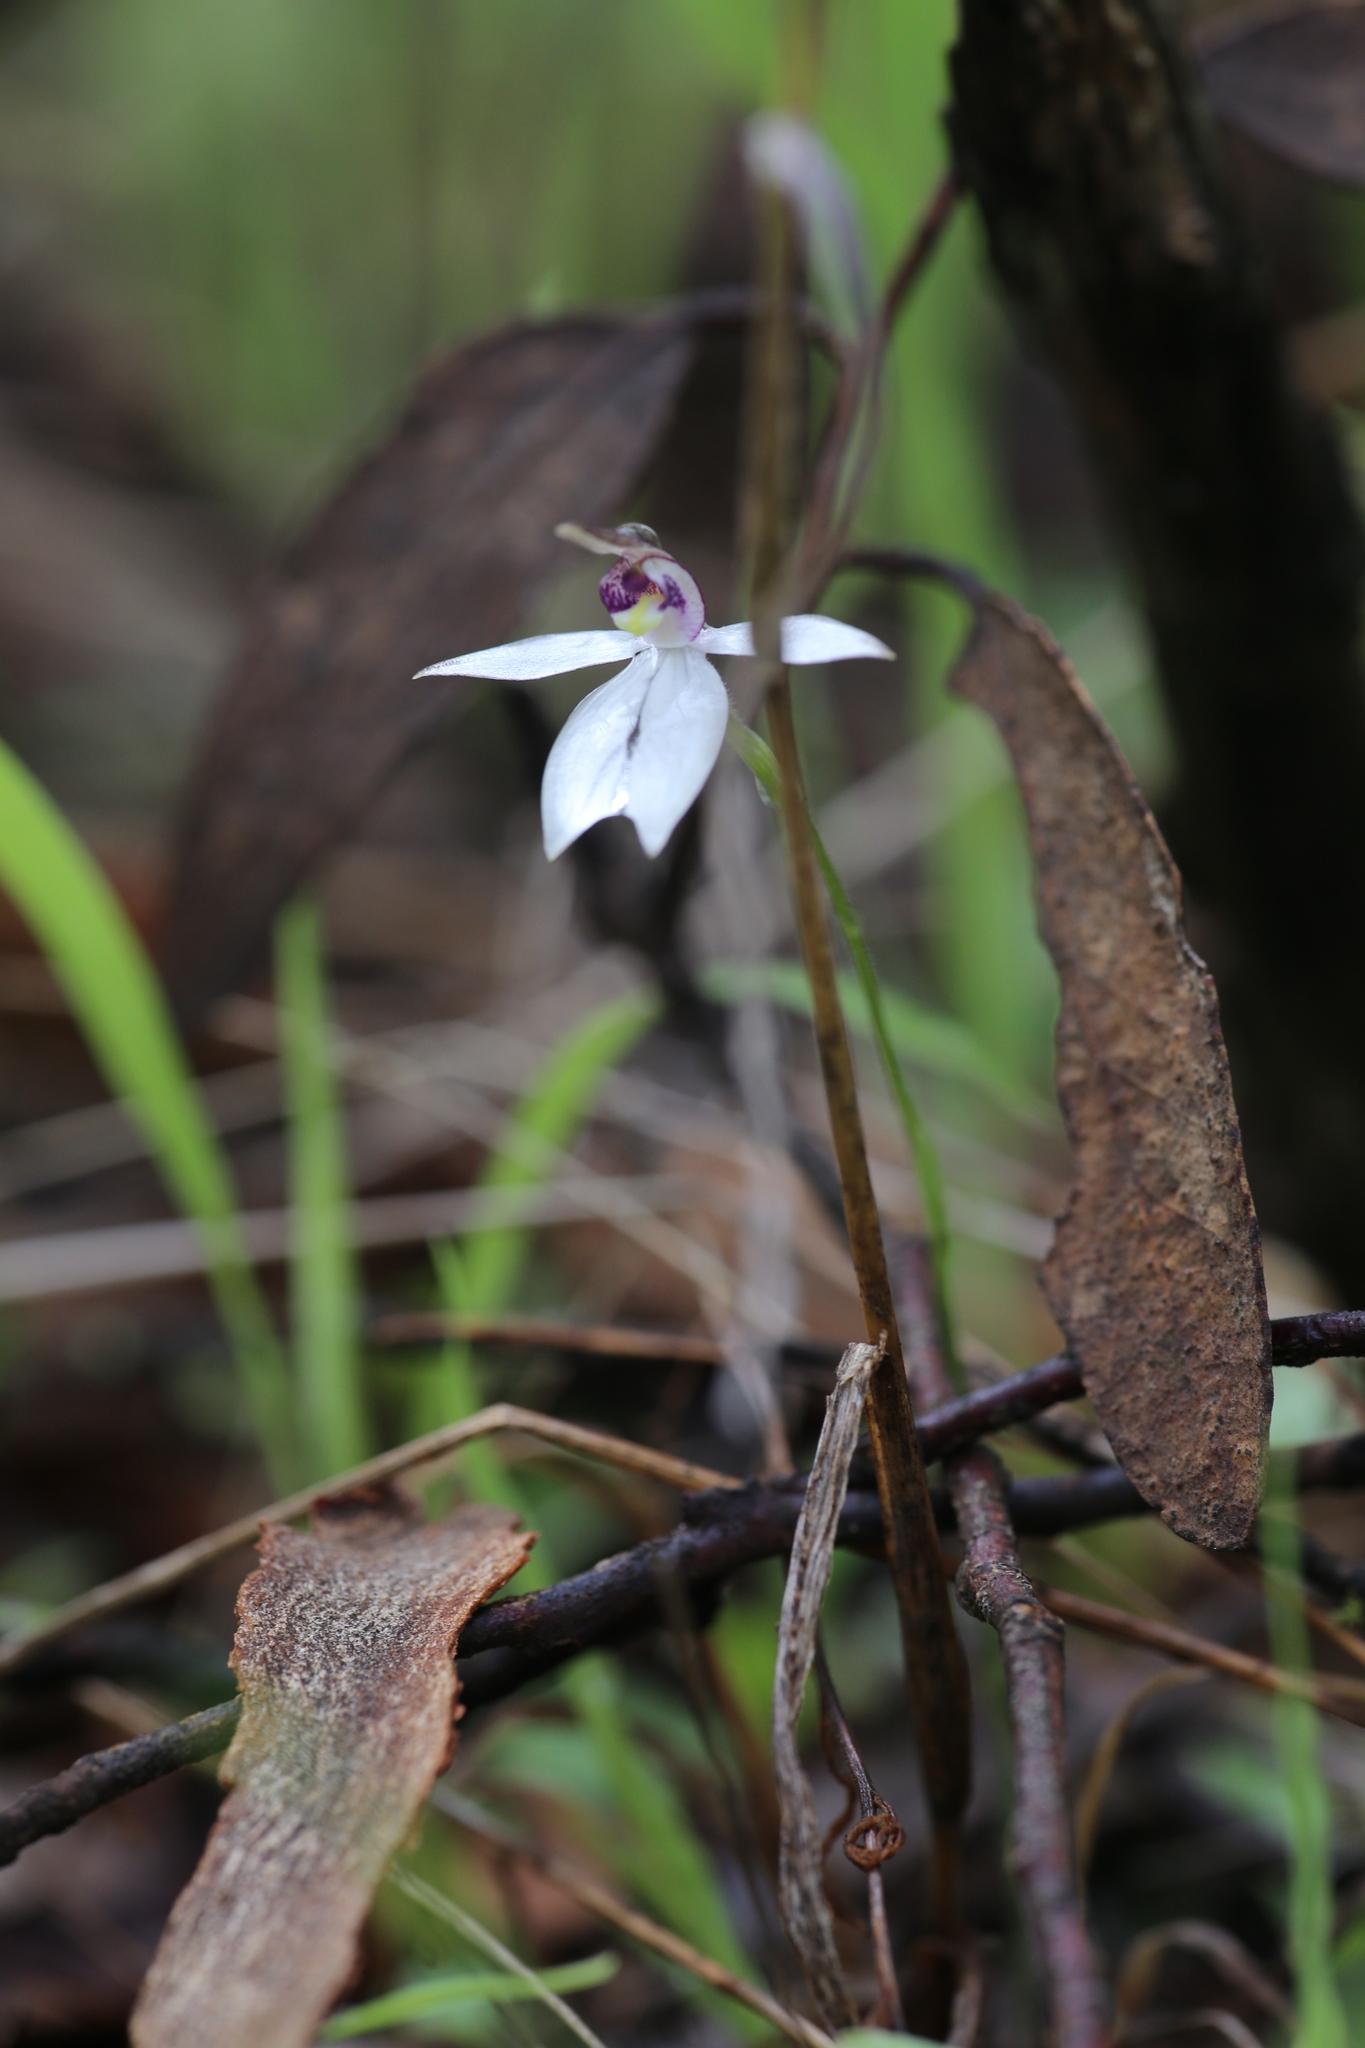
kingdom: Plantae
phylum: Tracheophyta
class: Liliopsida
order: Asparagales
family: Orchidaceae
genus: Caladenia
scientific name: Caladenia saccharata
